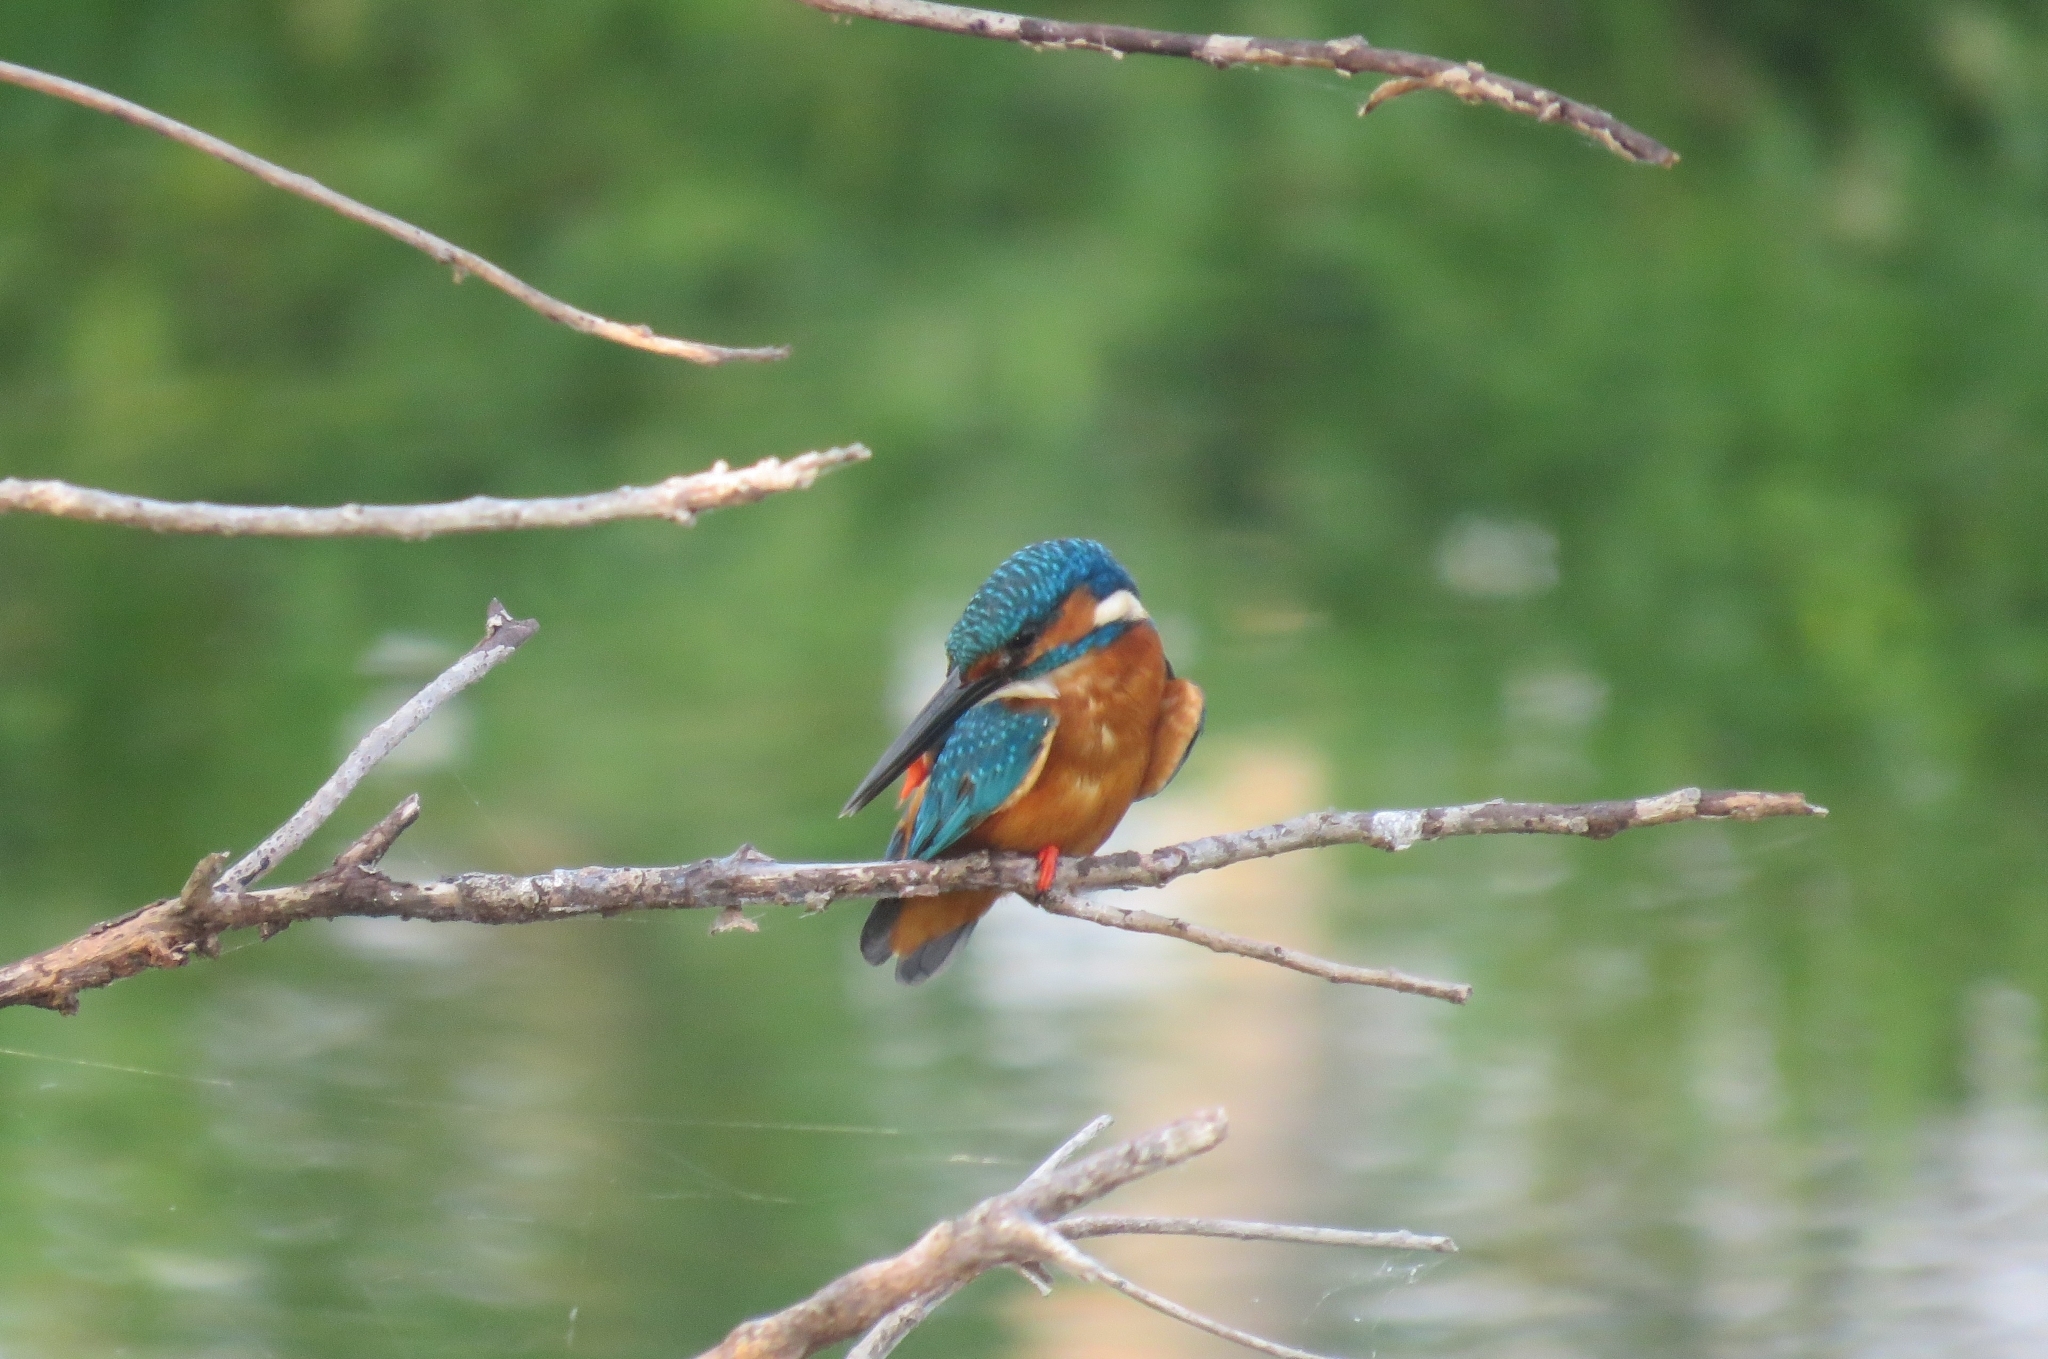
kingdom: Animalia
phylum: Chordata
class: Aves
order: Coraciiformes
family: Alcedinidae
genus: Alcedo
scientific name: Alcedo atthis
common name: Common kingfisher
